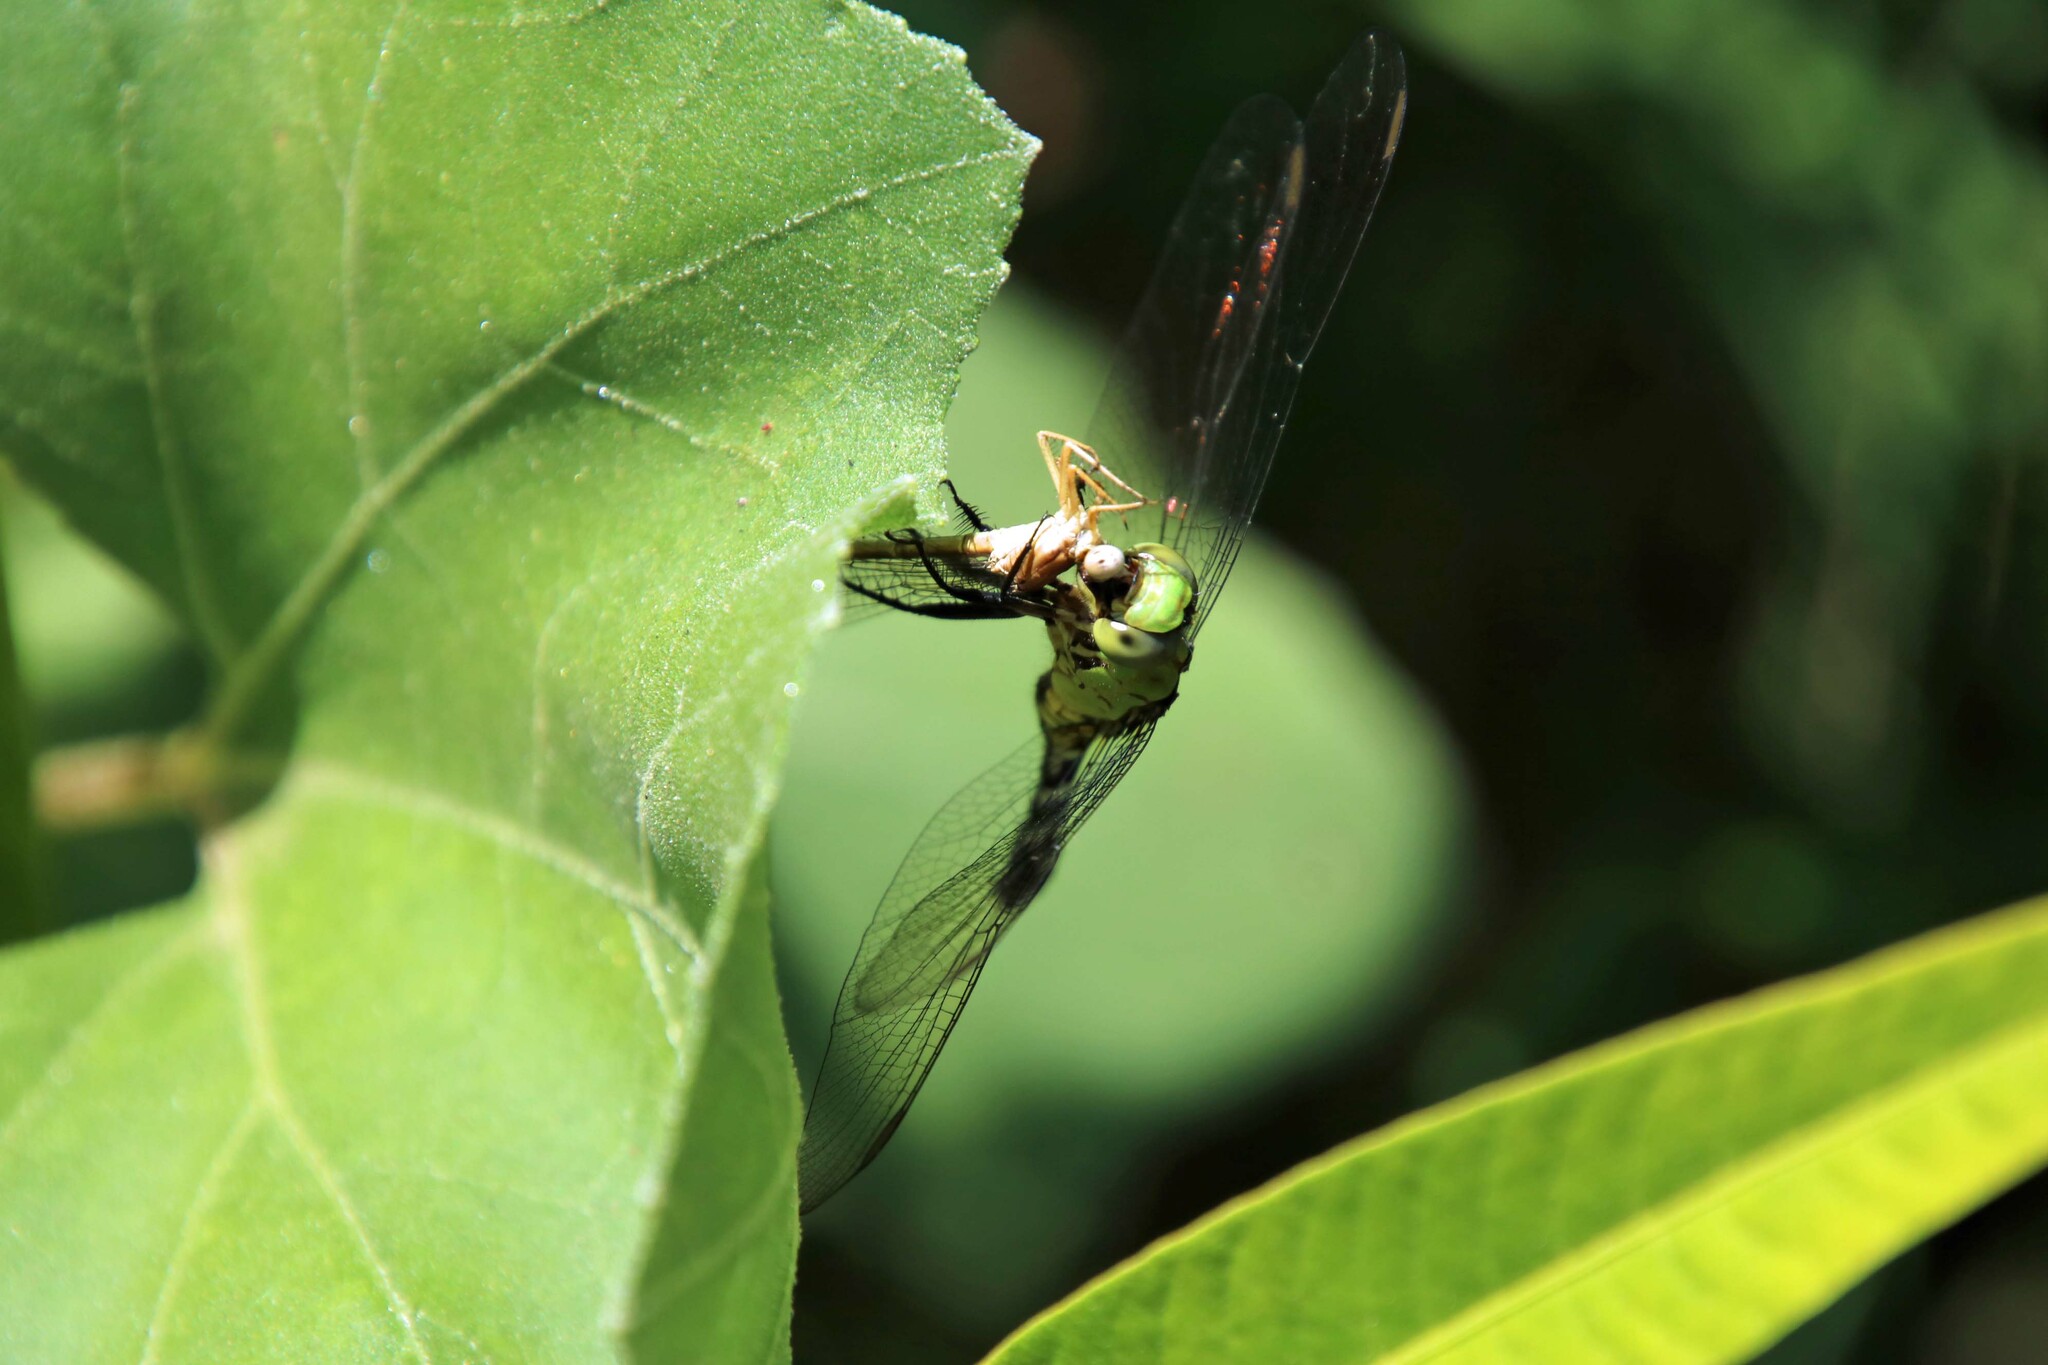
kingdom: Animalia
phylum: Arthropoda
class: Insecta
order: Odonata
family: Libellulidae
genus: Erythemis
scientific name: Erythemis simplicicollis
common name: Eastern pondhawk
